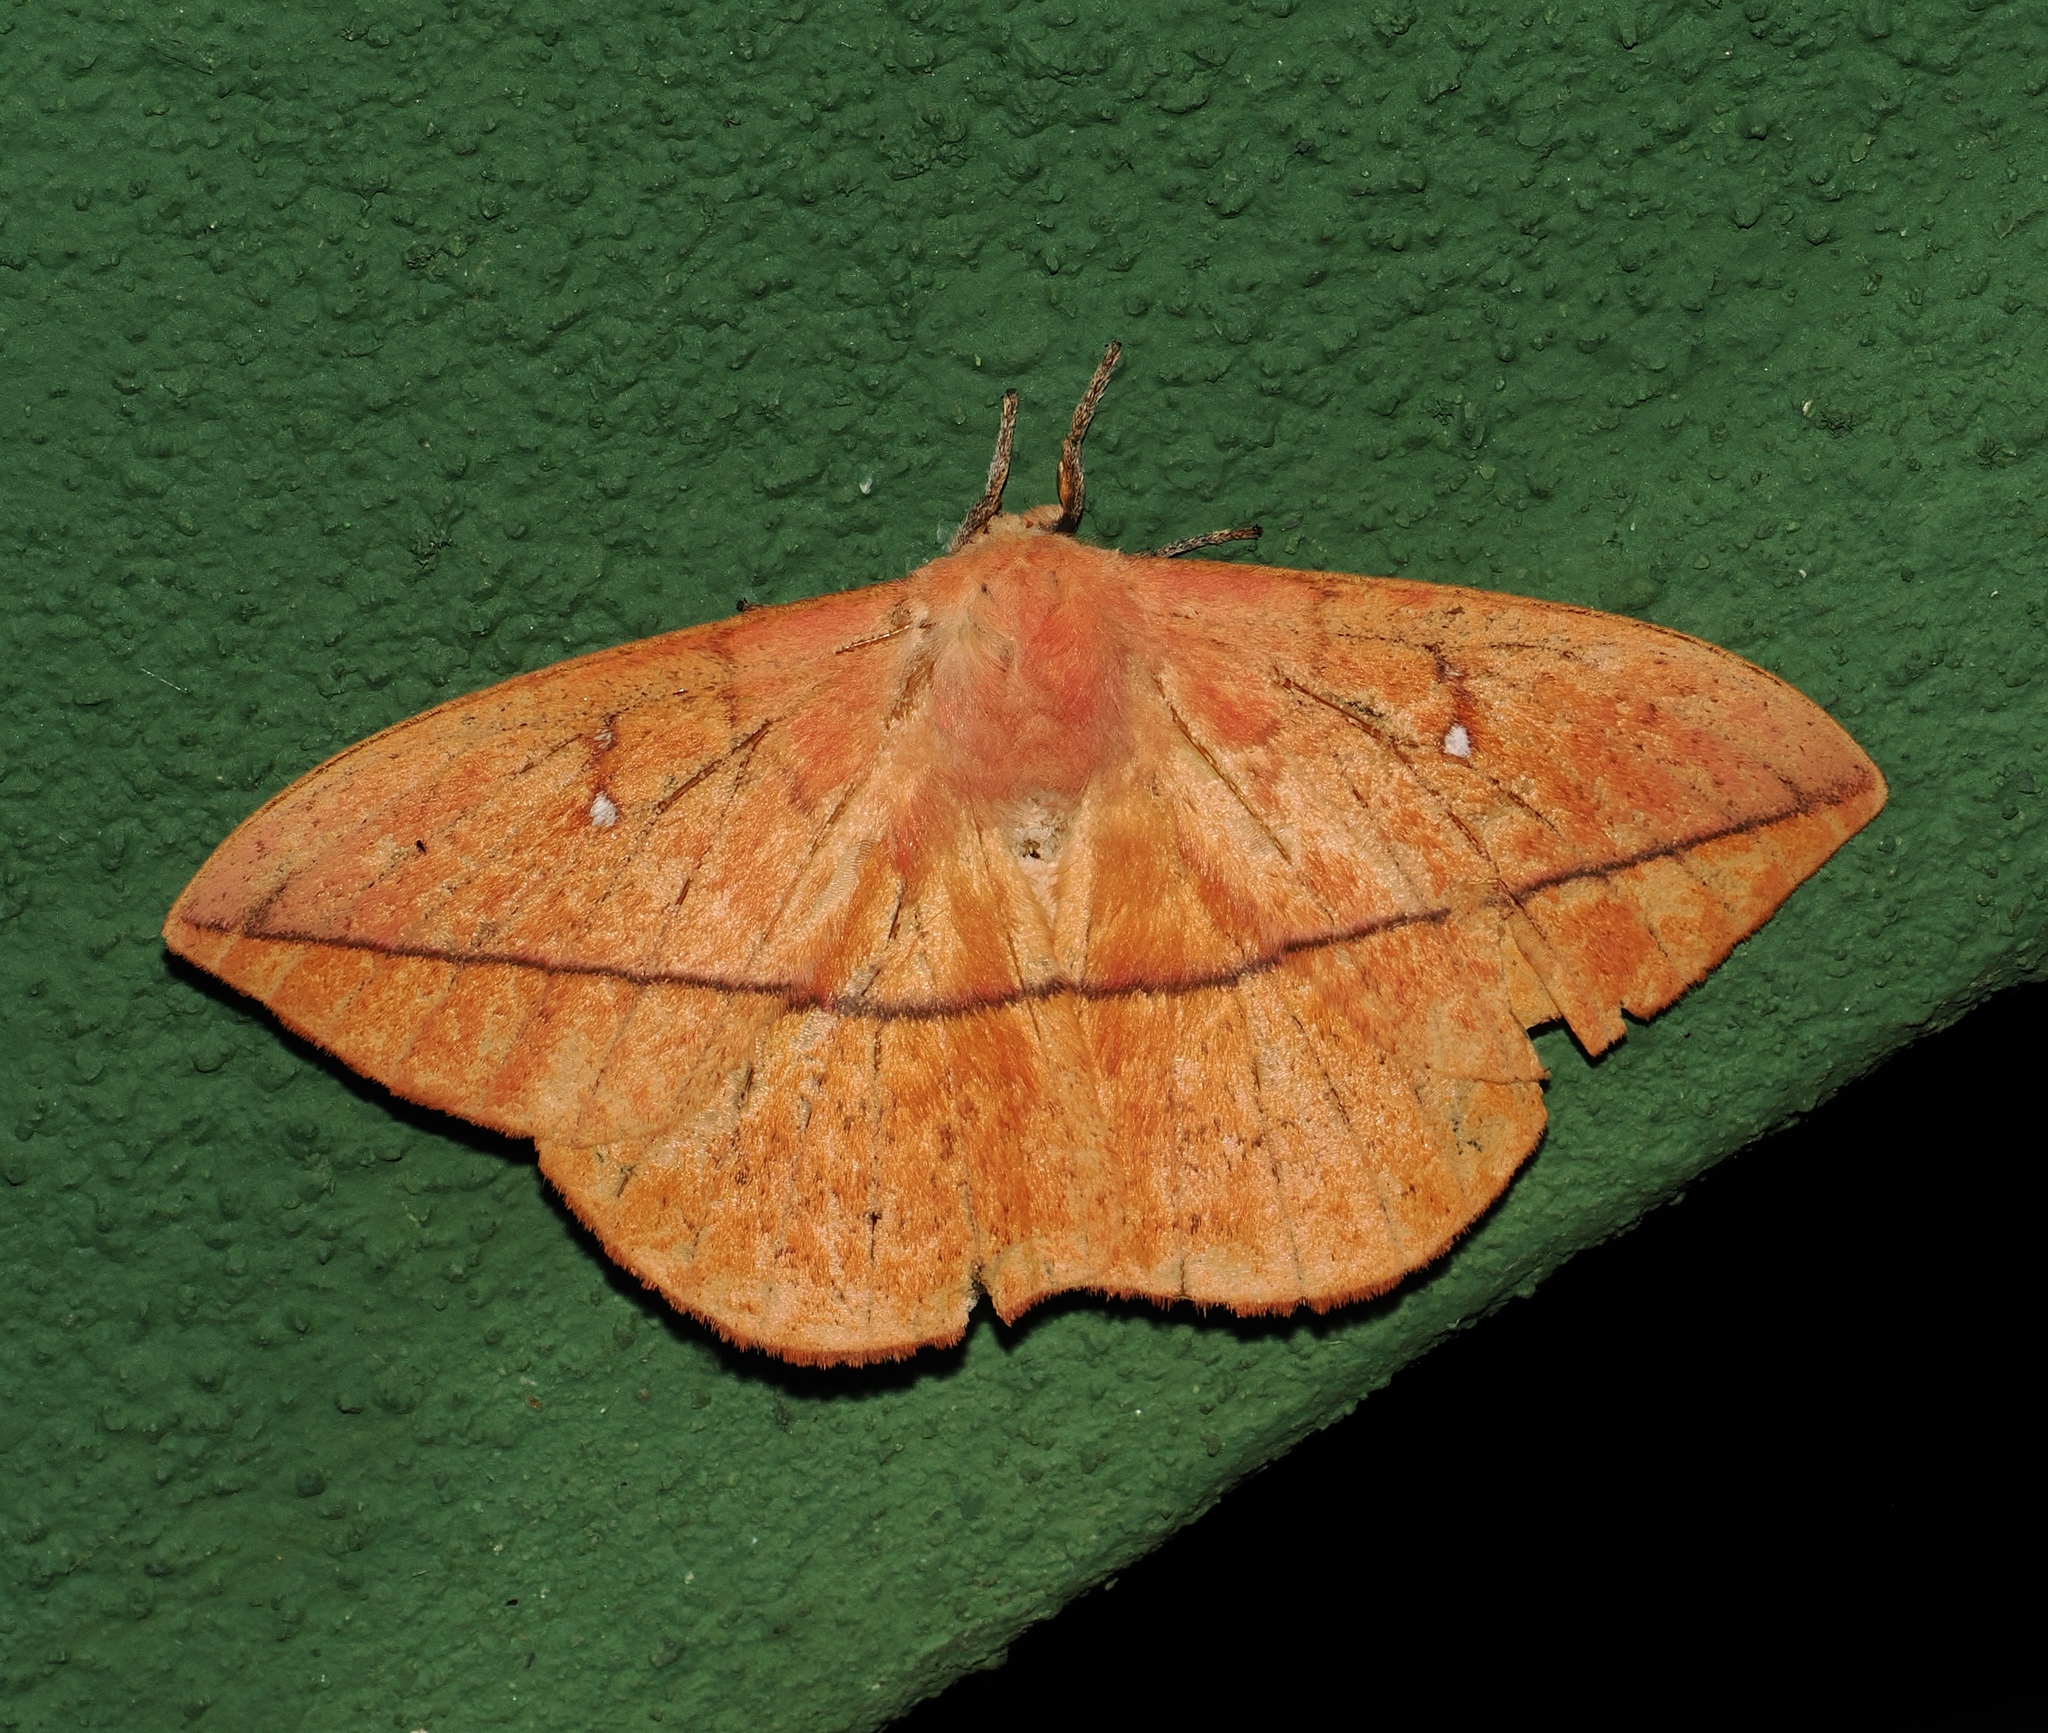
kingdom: Animalia
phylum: Arthropoda
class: Insecta
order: Lepidoptera
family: Saturniidae
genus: Lonomia
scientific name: Lonomia obliqua
